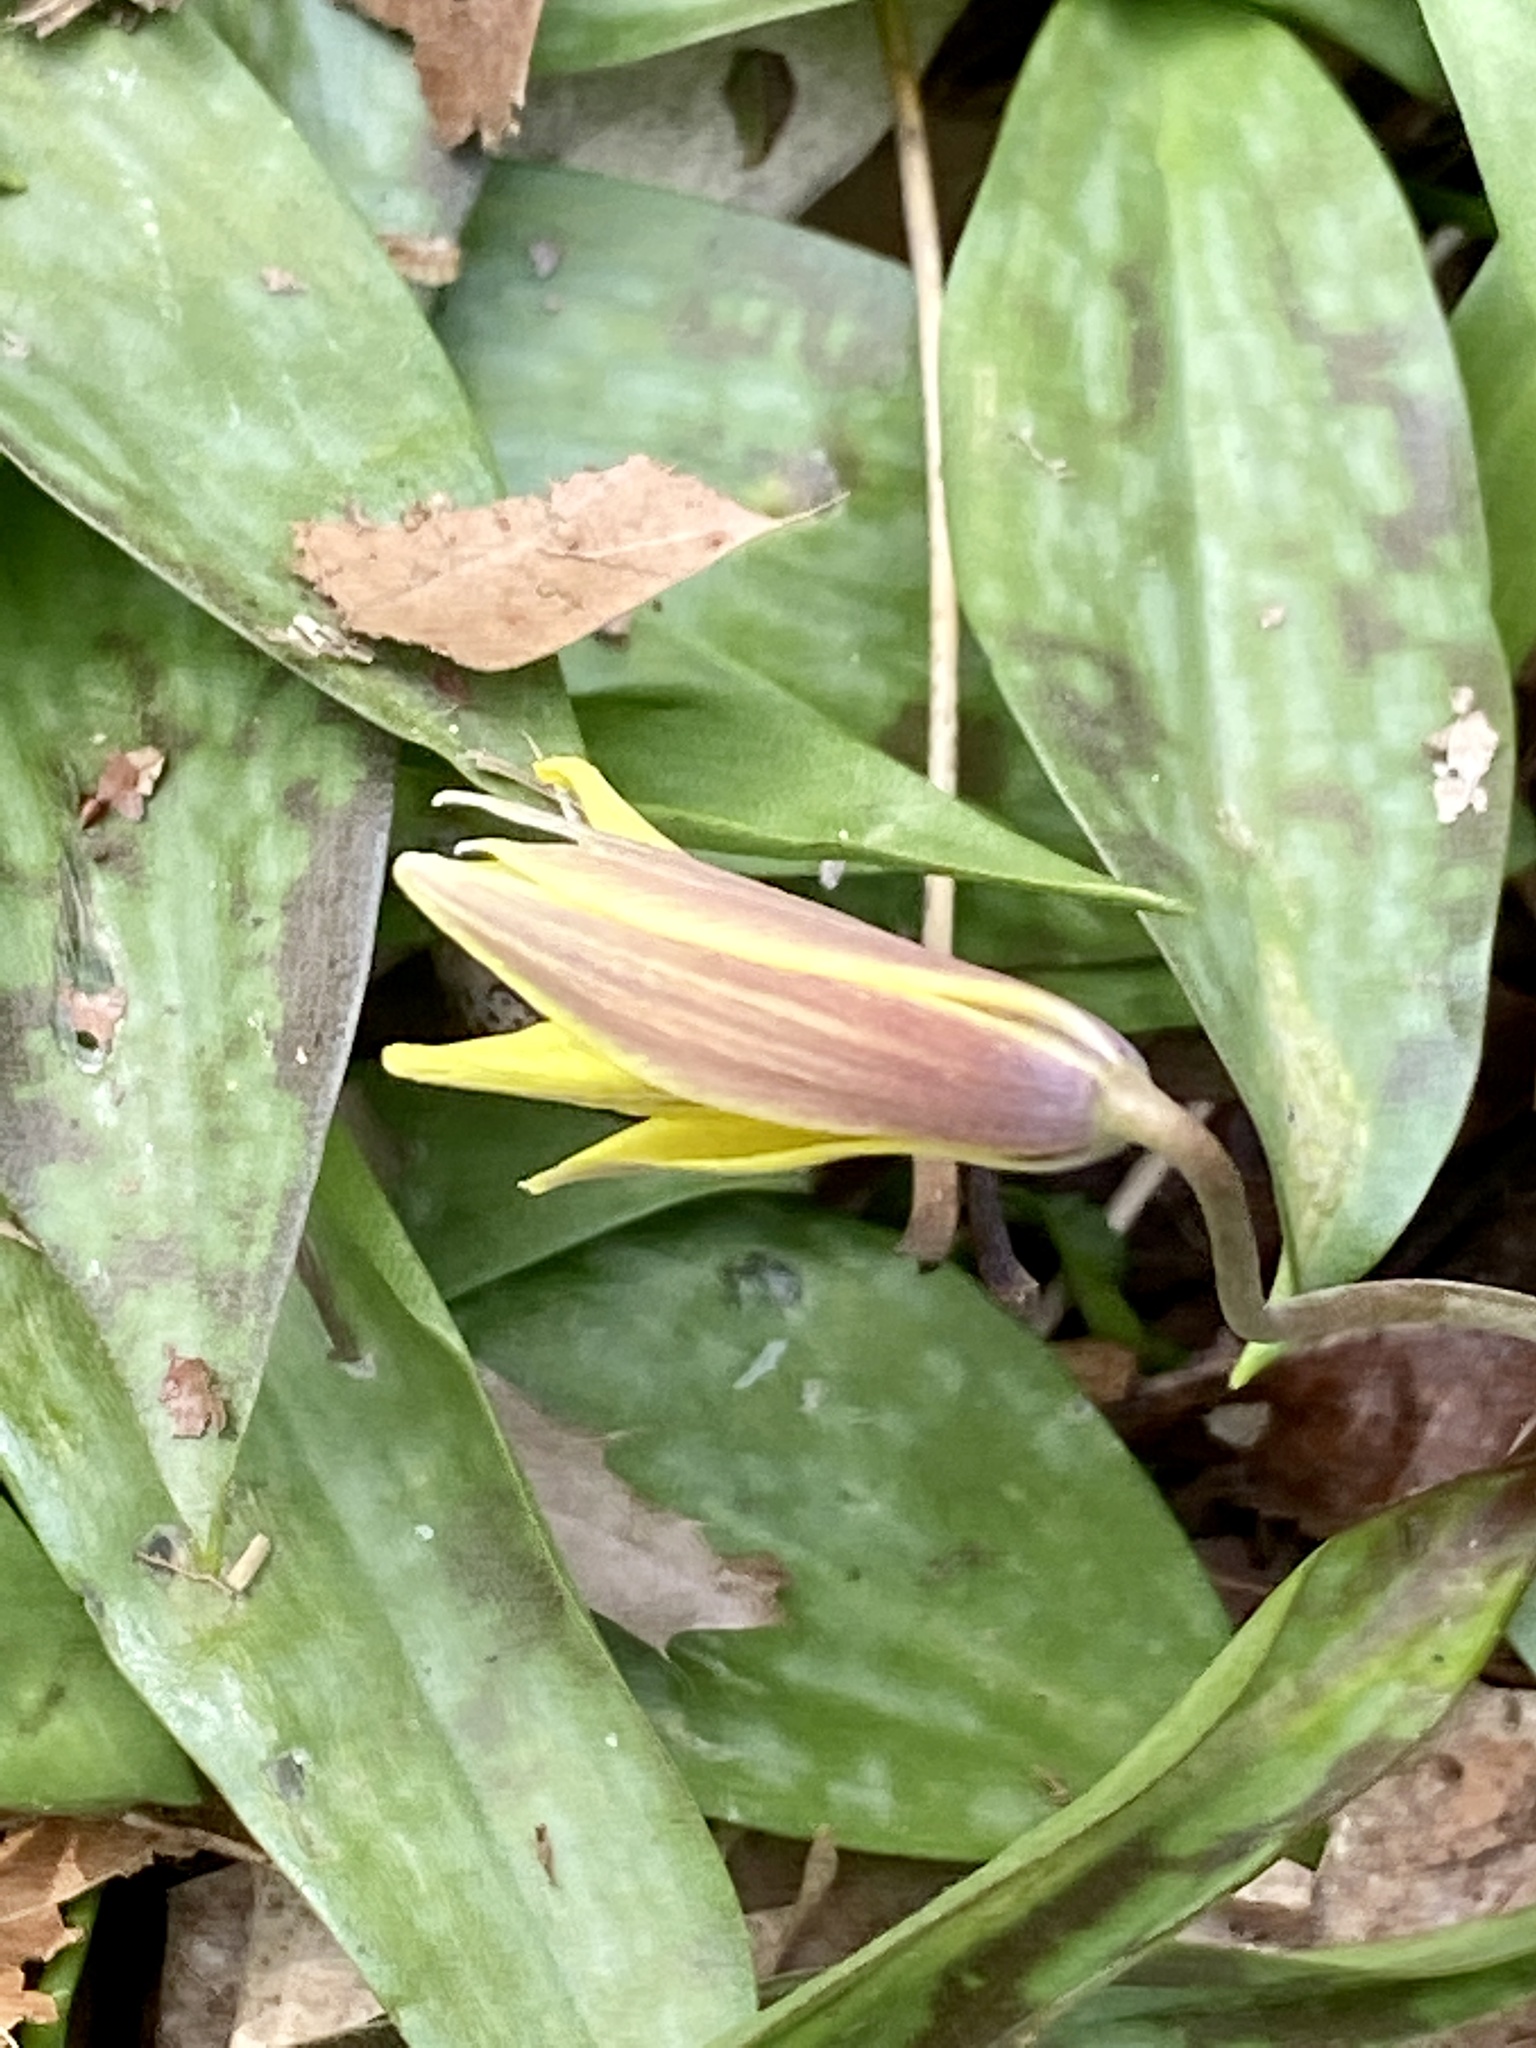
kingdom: Plantae
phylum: Tracheophyta
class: Liliopsida
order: Liliales
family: Liliaceae
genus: Erythronium
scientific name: Erythronium americanum
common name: Yellow adder's-tongue
